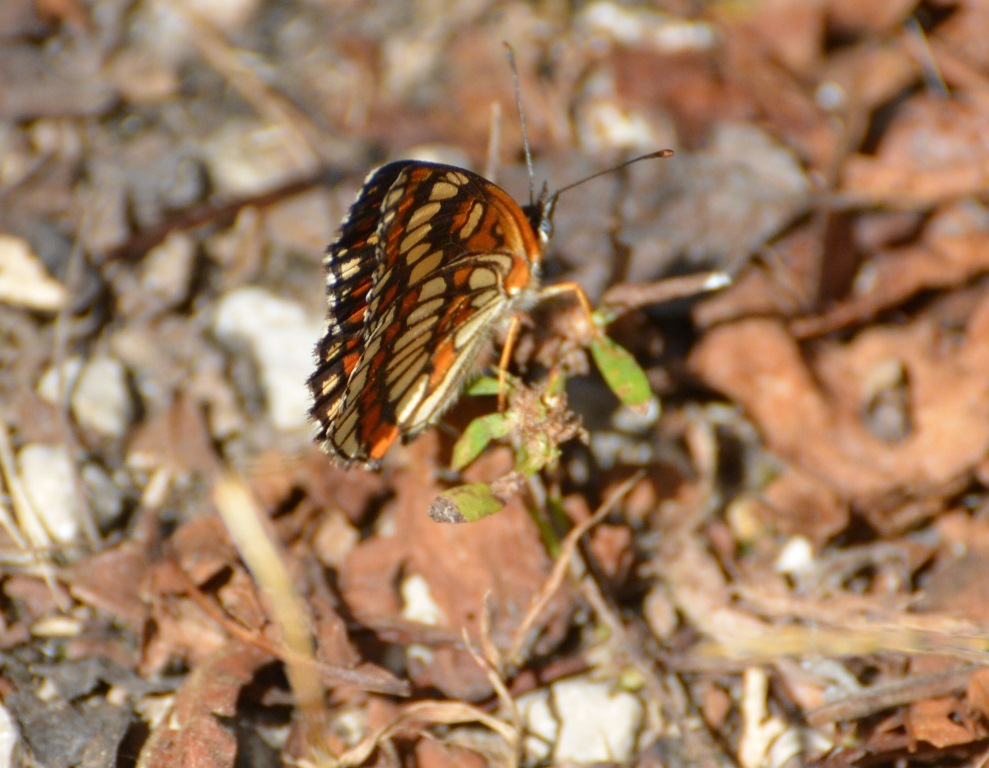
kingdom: Animalia
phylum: Arthropoda
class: Insecta
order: Lepidoptera
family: Nymphalidae
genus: Thessalia
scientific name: Thessalia theona
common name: Nymphalid moth
